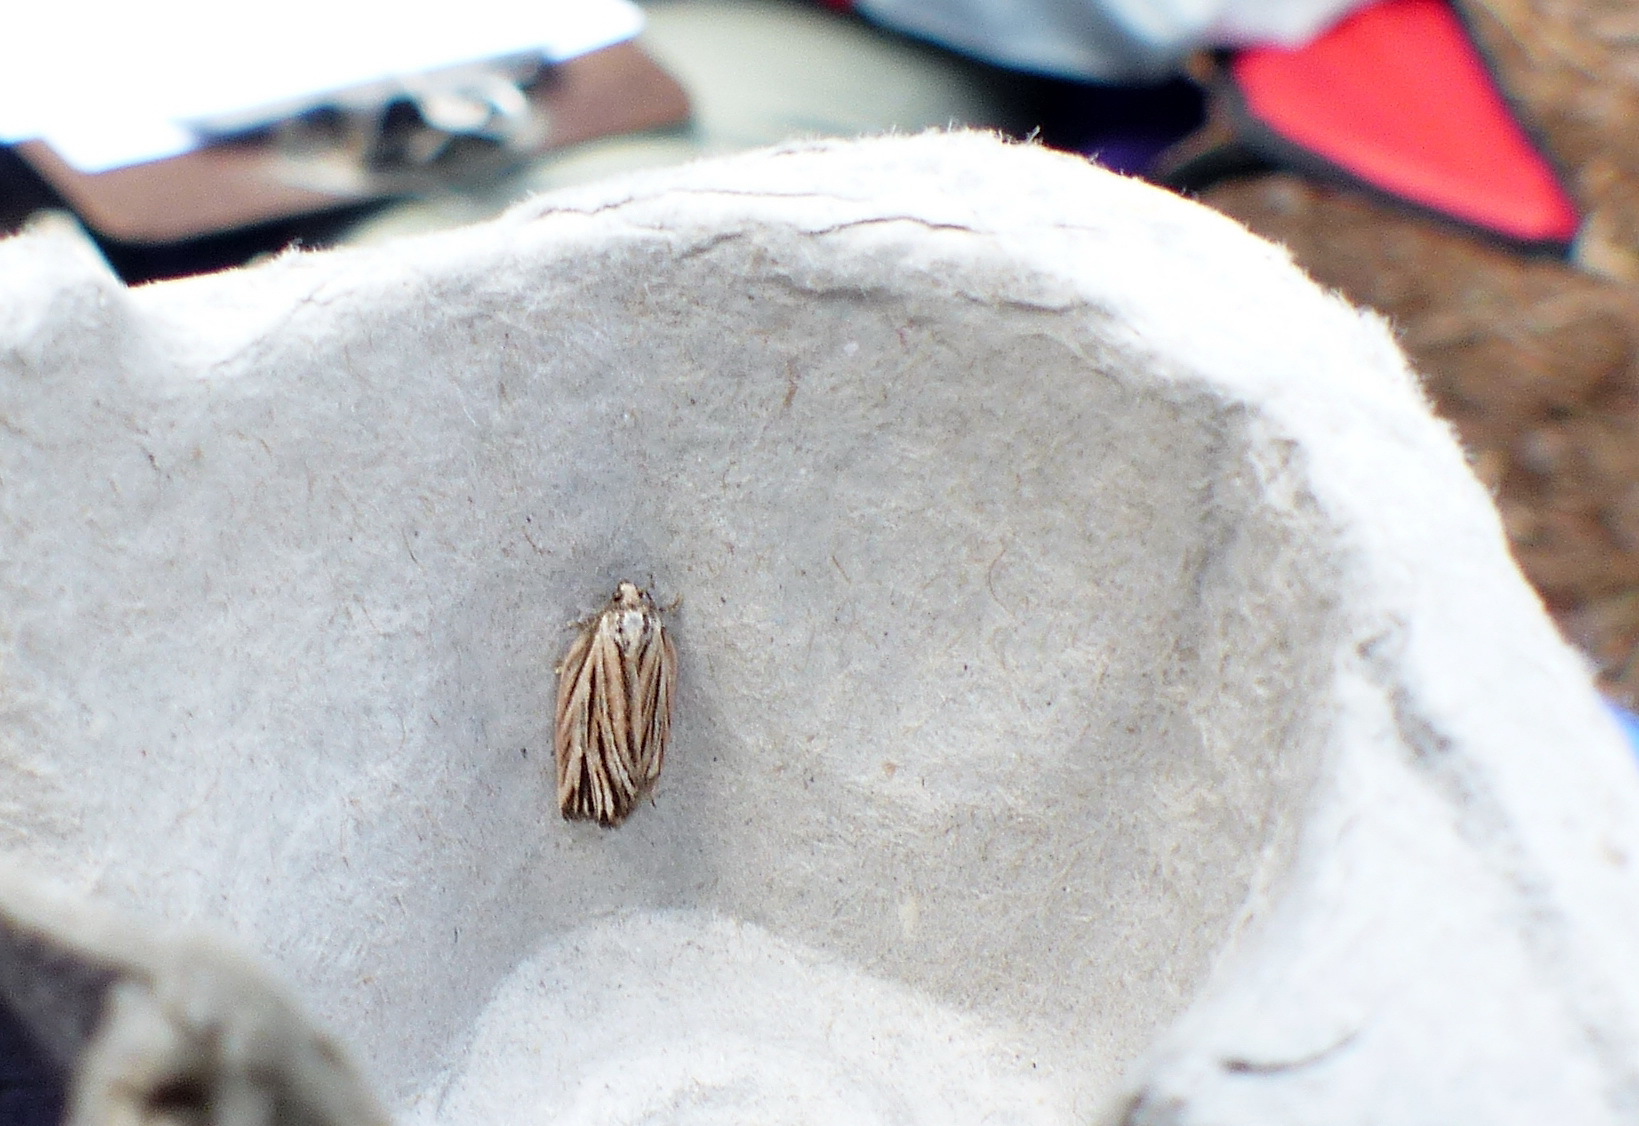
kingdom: Animalia
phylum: Arthropoda
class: Insecta
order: Lepidoptera
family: Tortricidae
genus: Archips
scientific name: Archips strianus
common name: Striated tortrix moth
